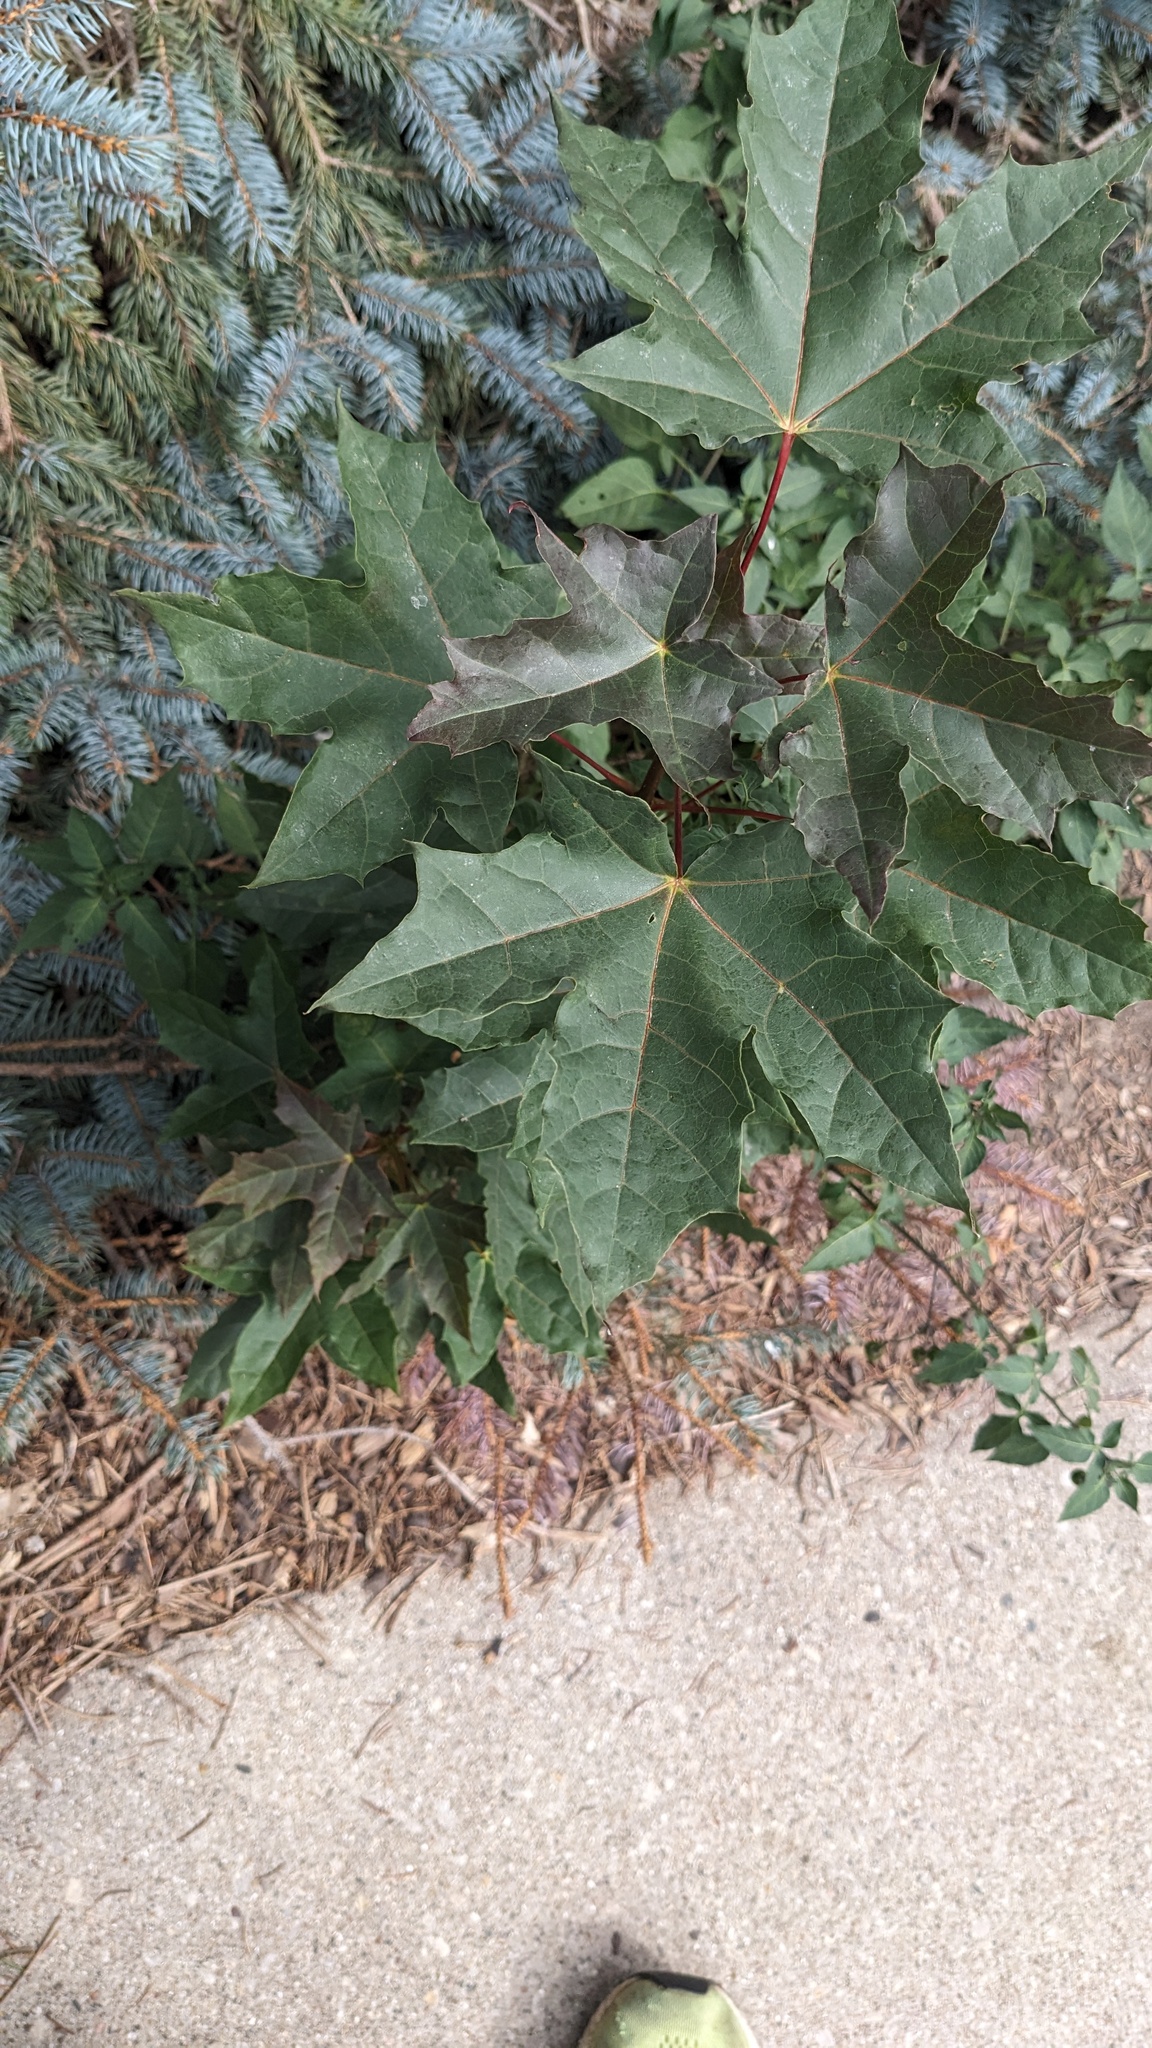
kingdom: Plantae
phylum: Tracheophyta
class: Magnoliopsida
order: Sapindales
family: Sapindaceae
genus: Acer
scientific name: Acer platanoides
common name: Norway maple
